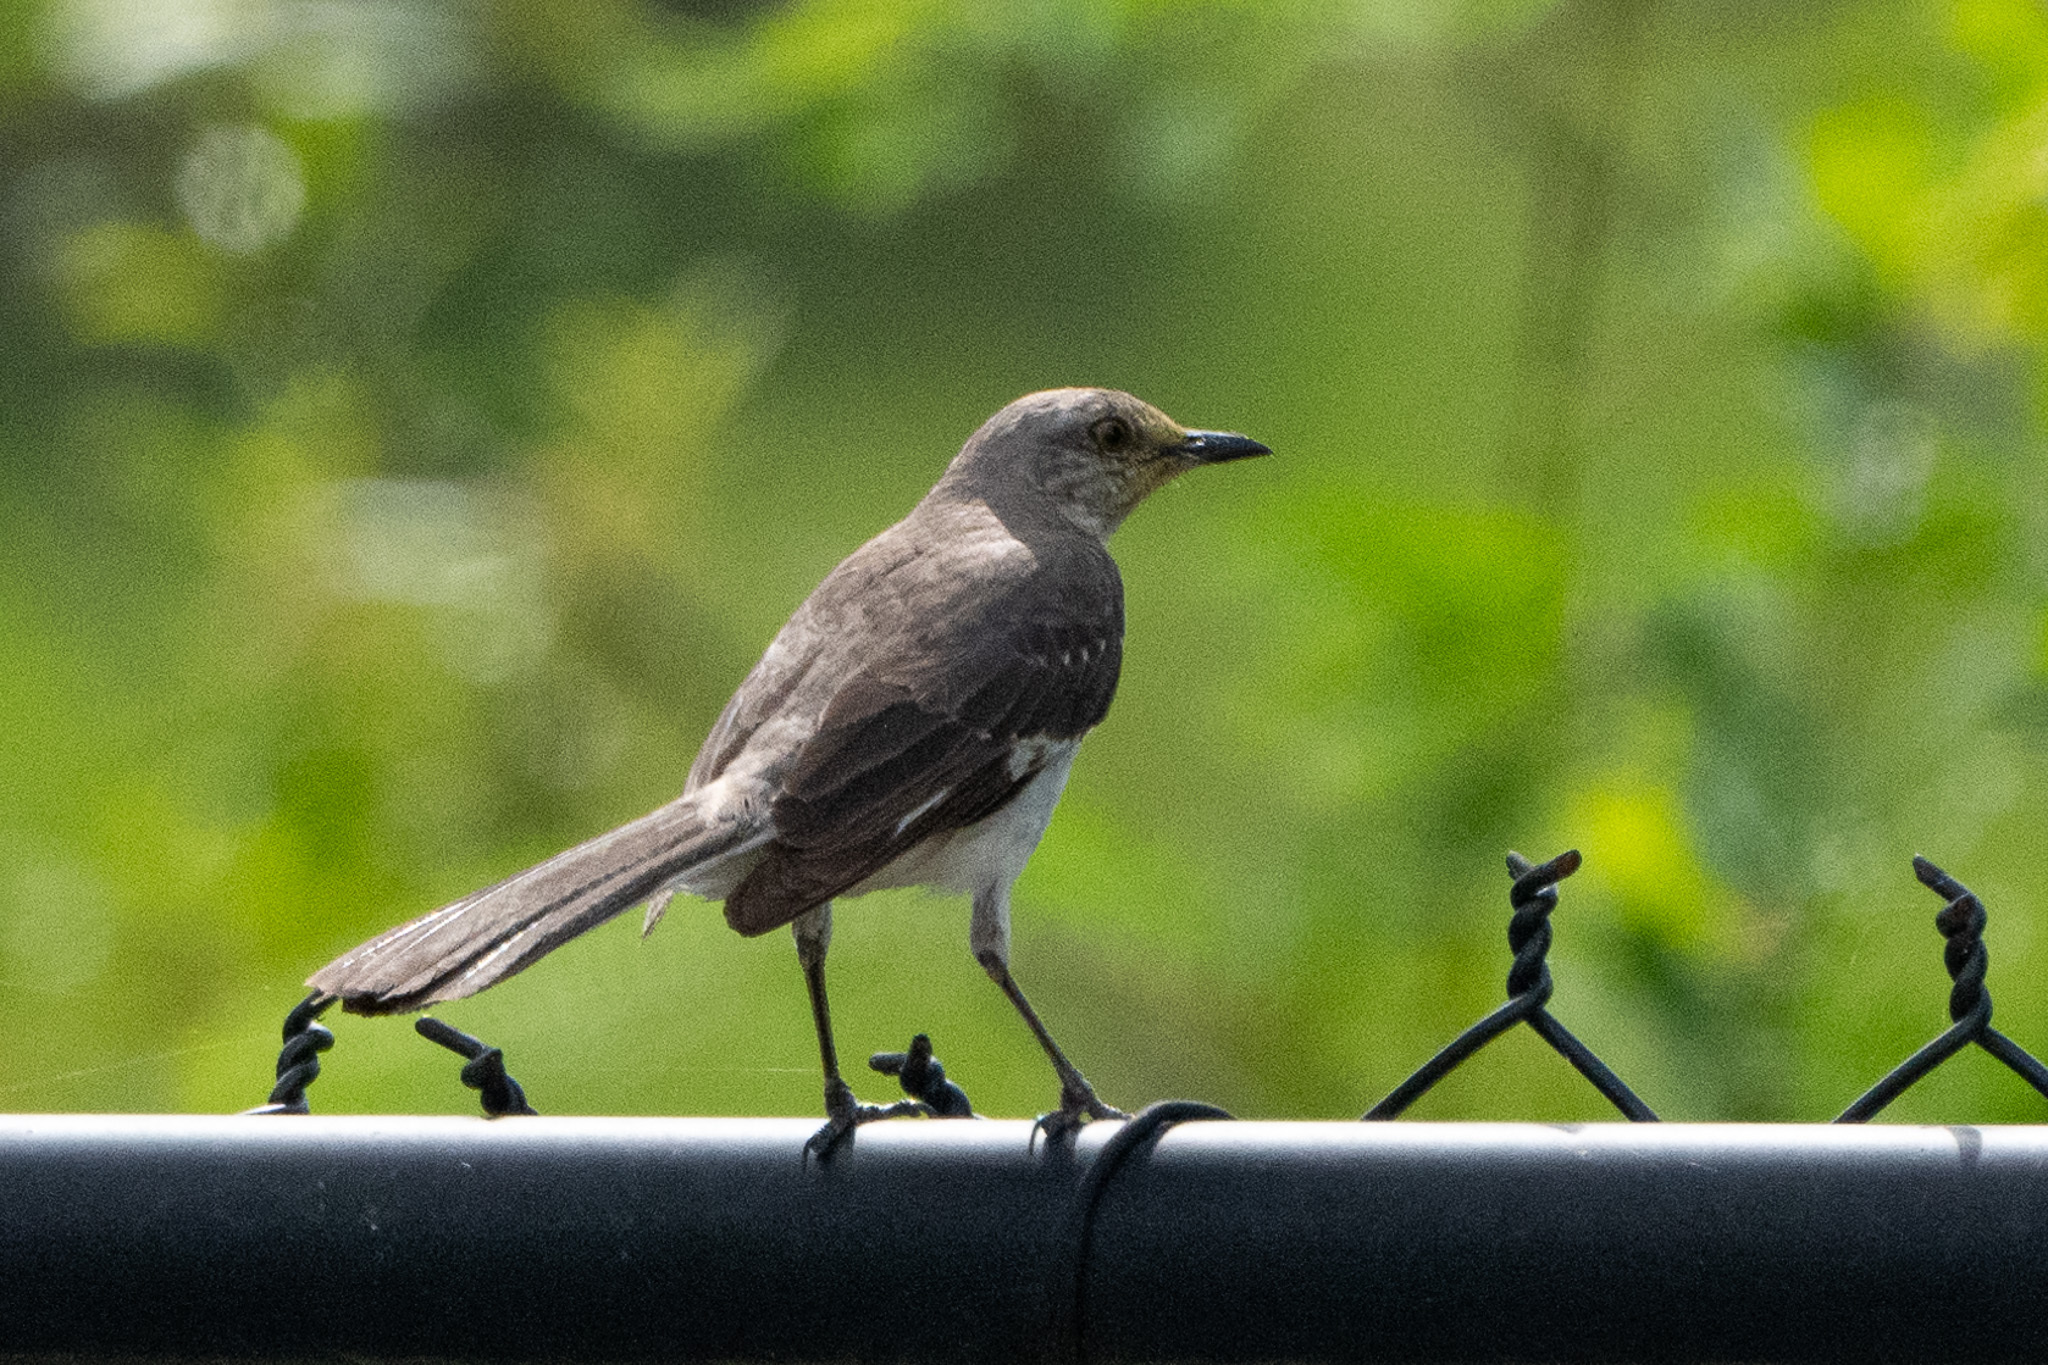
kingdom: Animalia
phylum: Chordata
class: Aves
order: Passeriformes
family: Mimidae
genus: Mimus
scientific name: Mimus polyglottos
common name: Northern mockingbird
